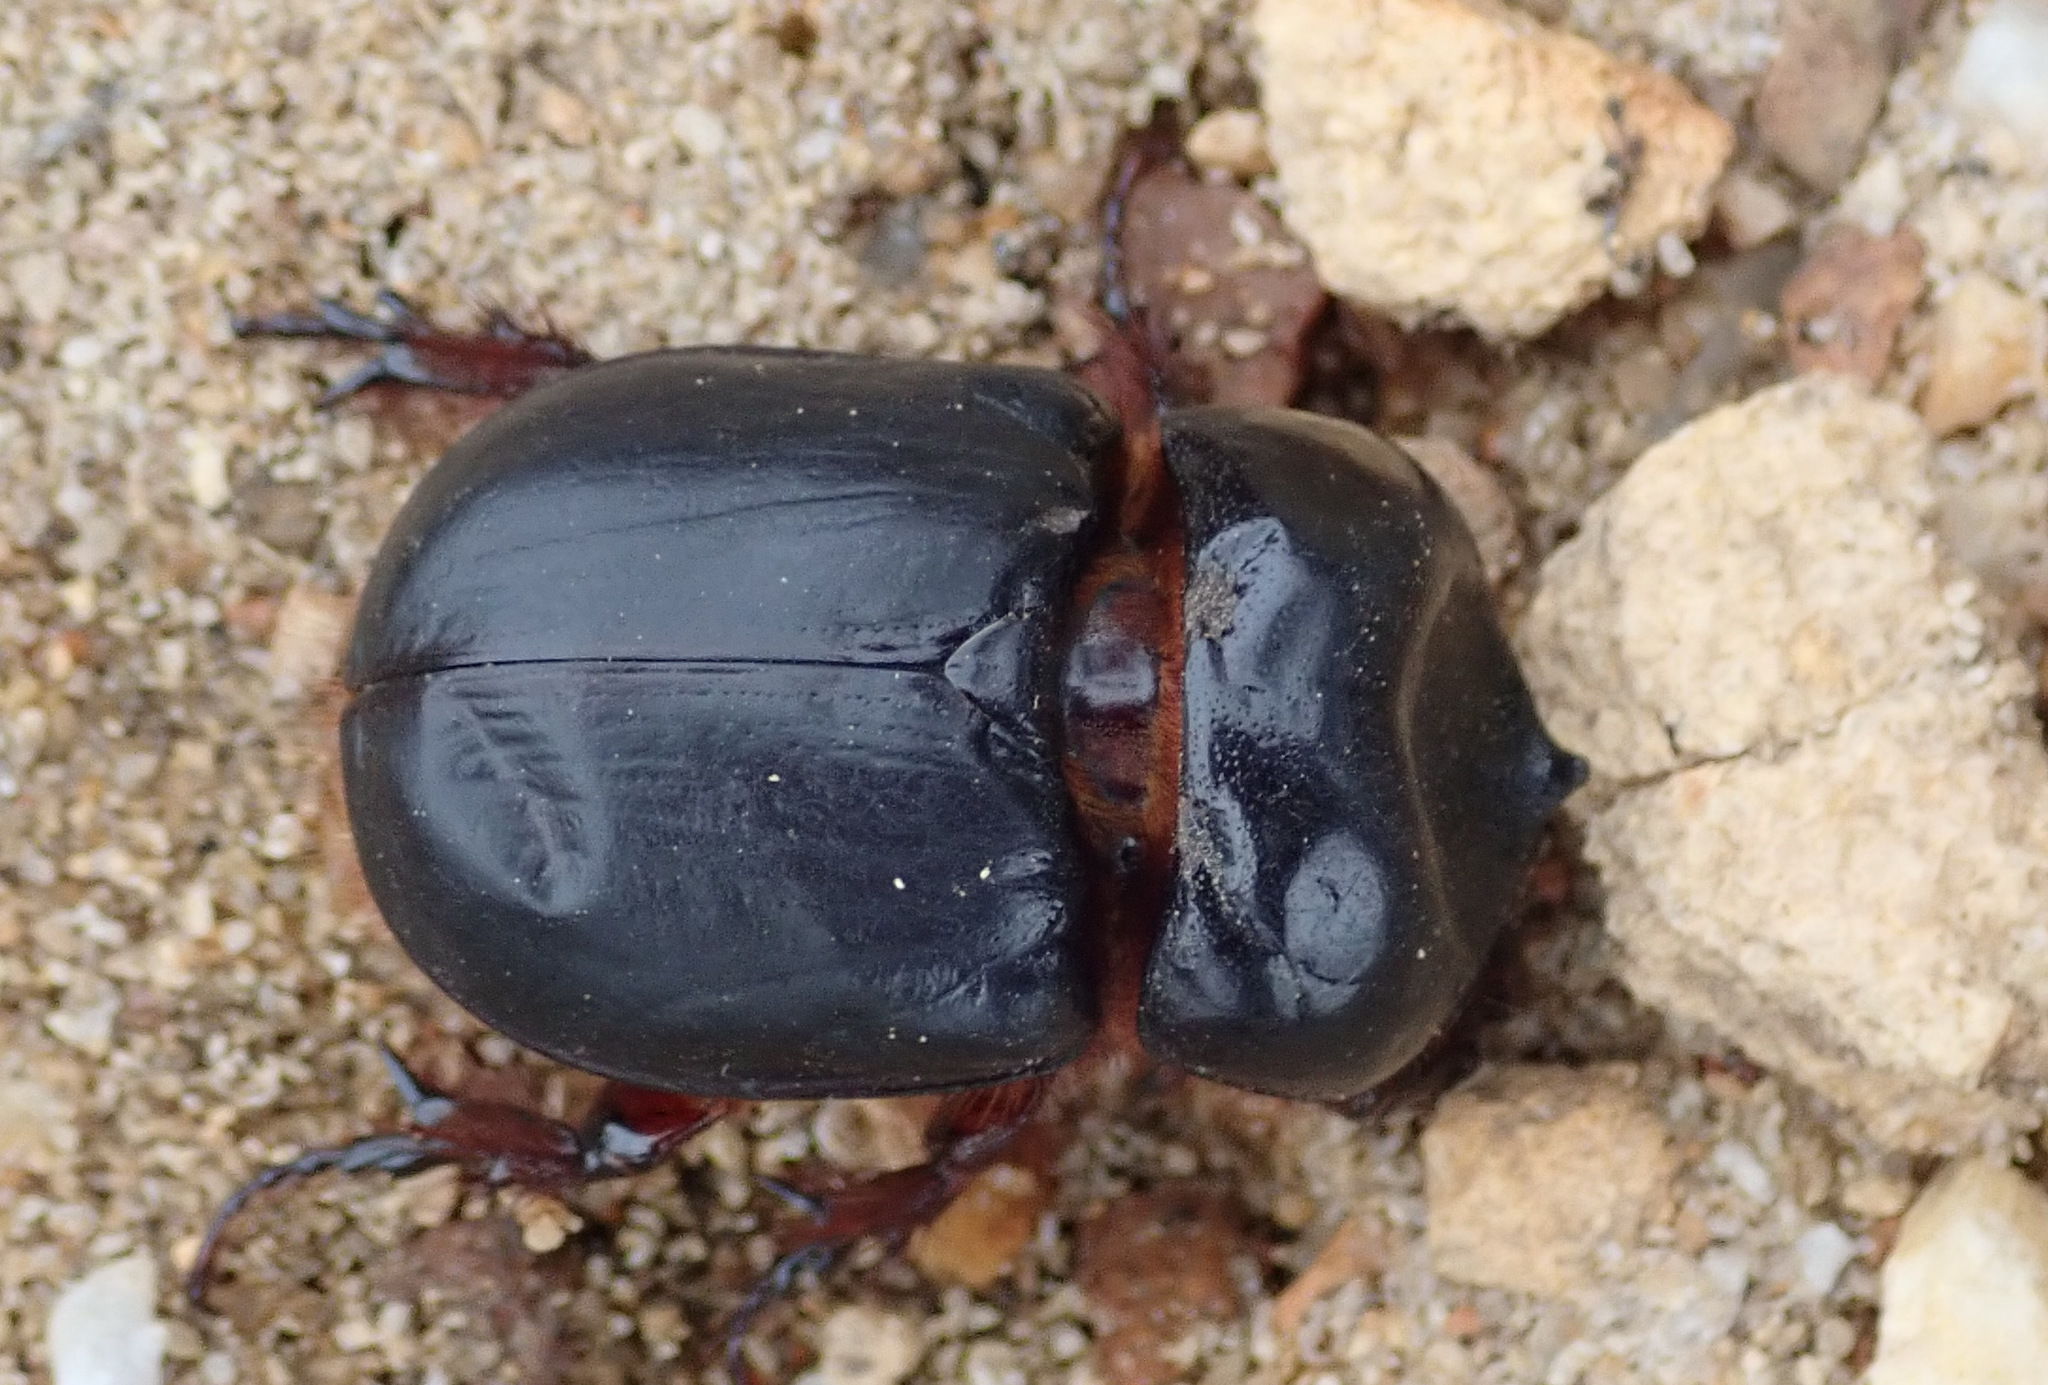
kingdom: Animalia
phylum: Arthropoda
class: Insecta
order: Coleoptera
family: Scarabaeidae
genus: Orsilochus
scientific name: Orsilochus cornutus
